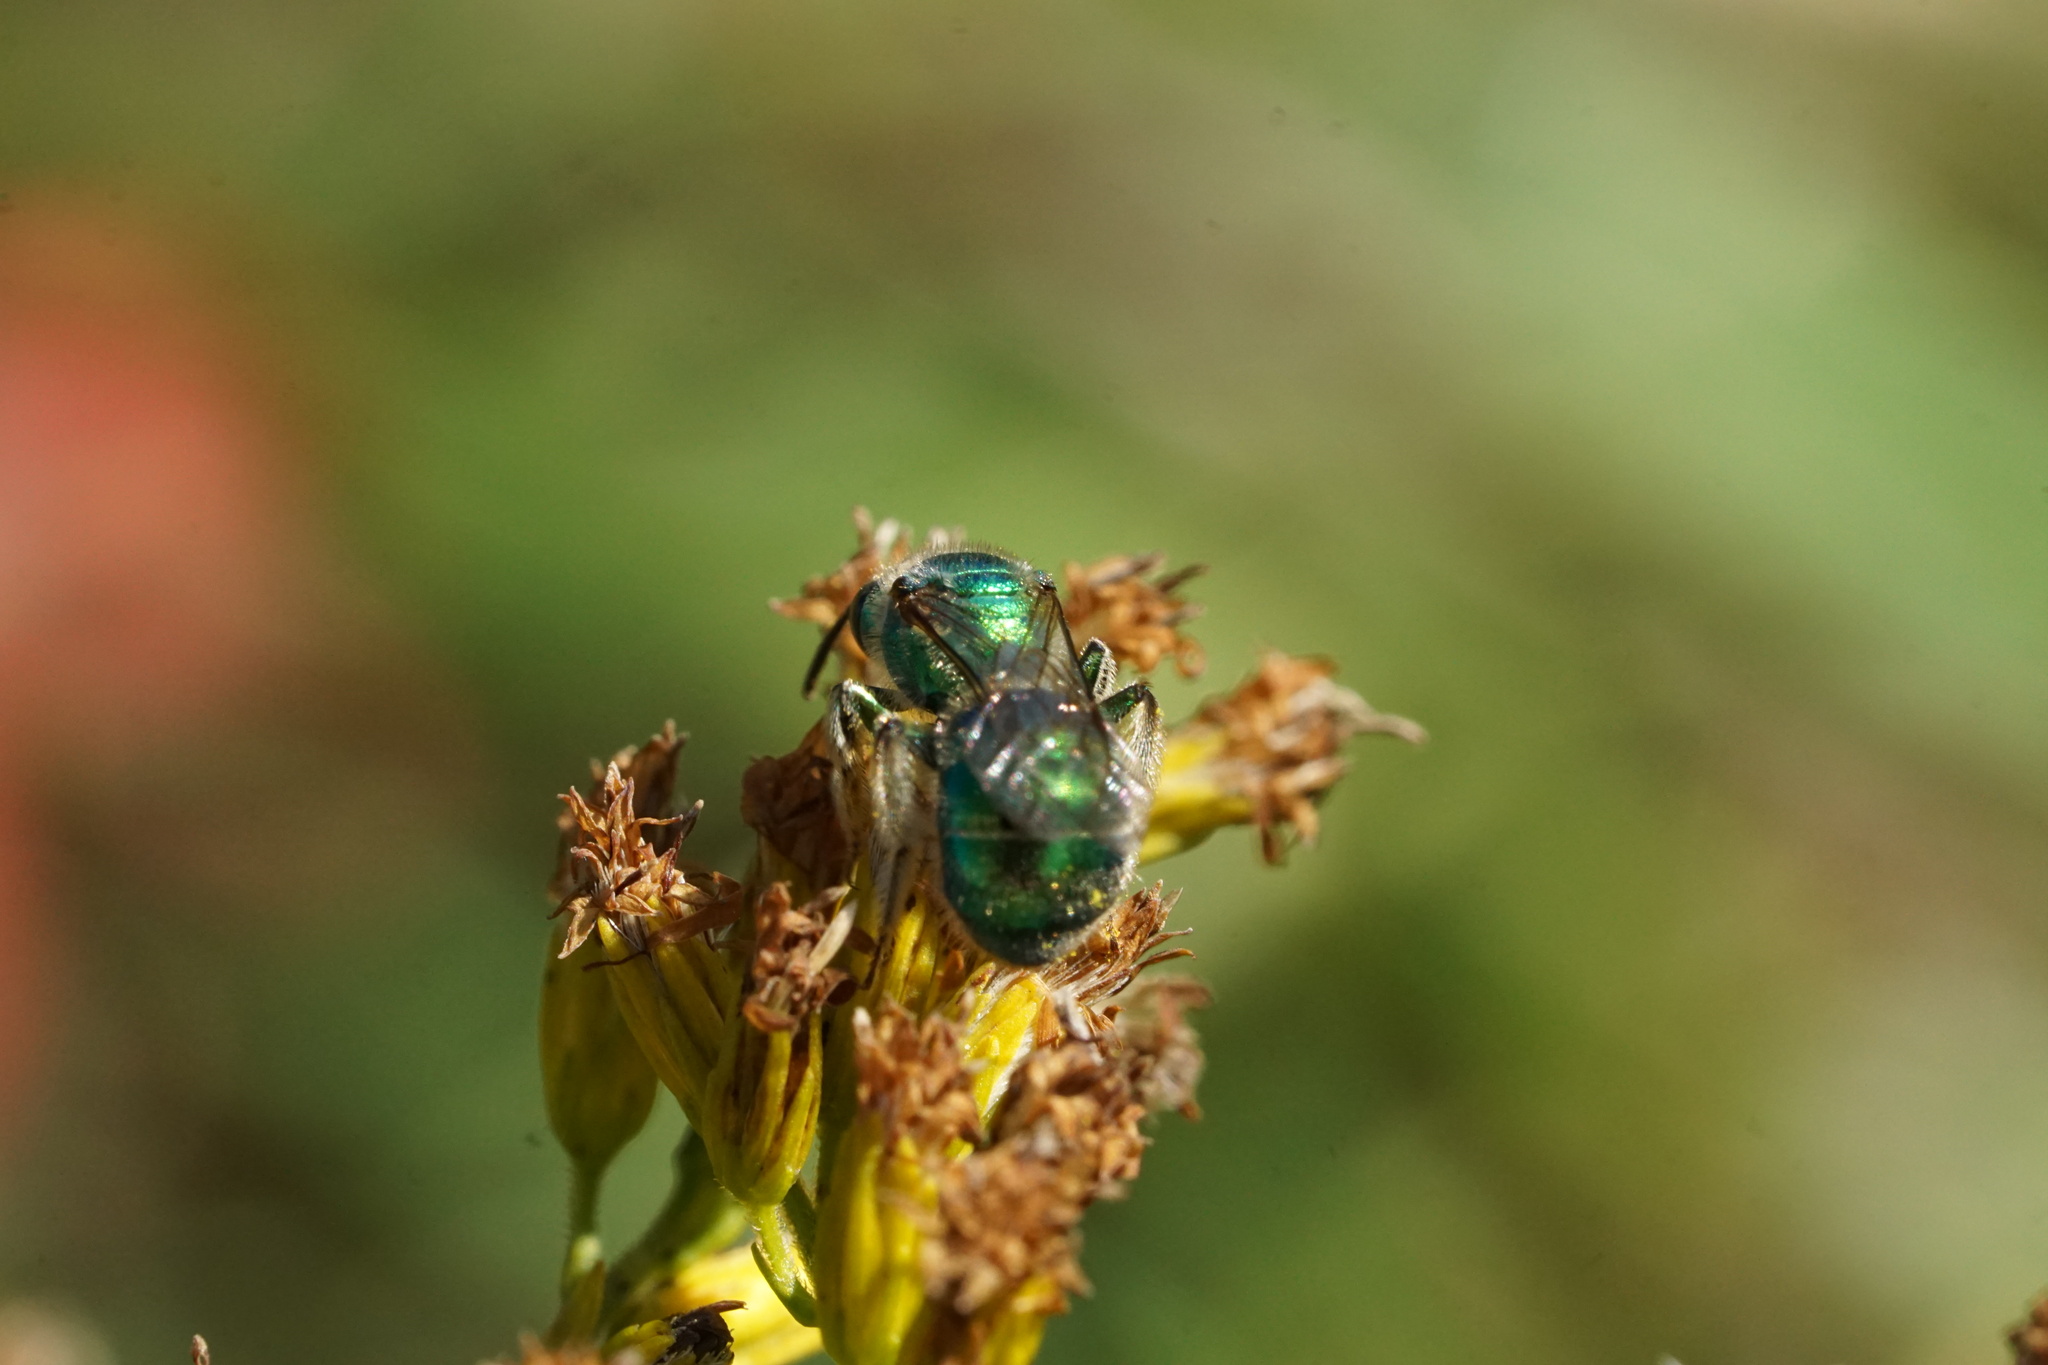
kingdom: Animalia
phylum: Arthropoda
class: Insecta
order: Hymenoptera
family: Halictidae
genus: Augochloropsis
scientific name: Augochloropsis viridula
